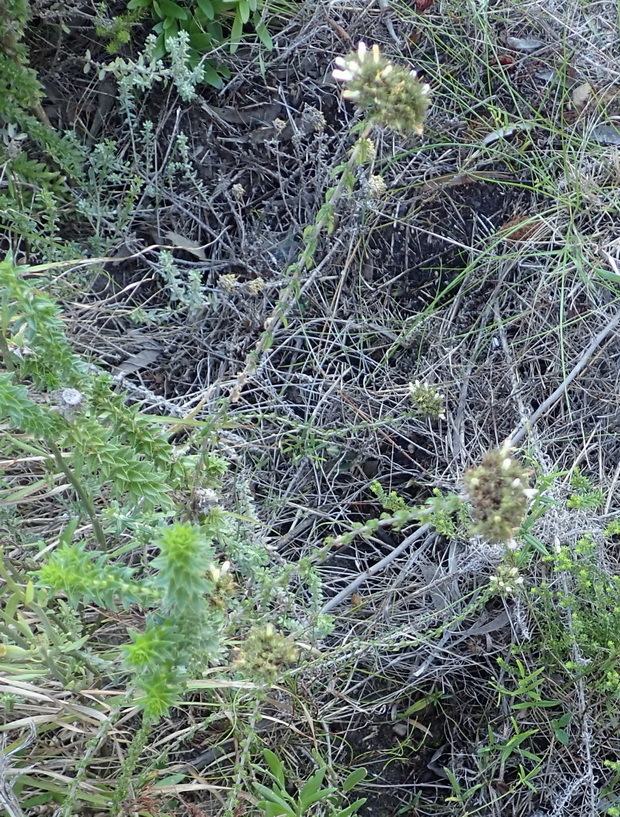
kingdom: Plantae
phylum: Tracheophyta
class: Magnoliopsida
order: Asterales
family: Campanulaceae
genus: Wahlenbergia
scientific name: Wahlenbergia desmantha
